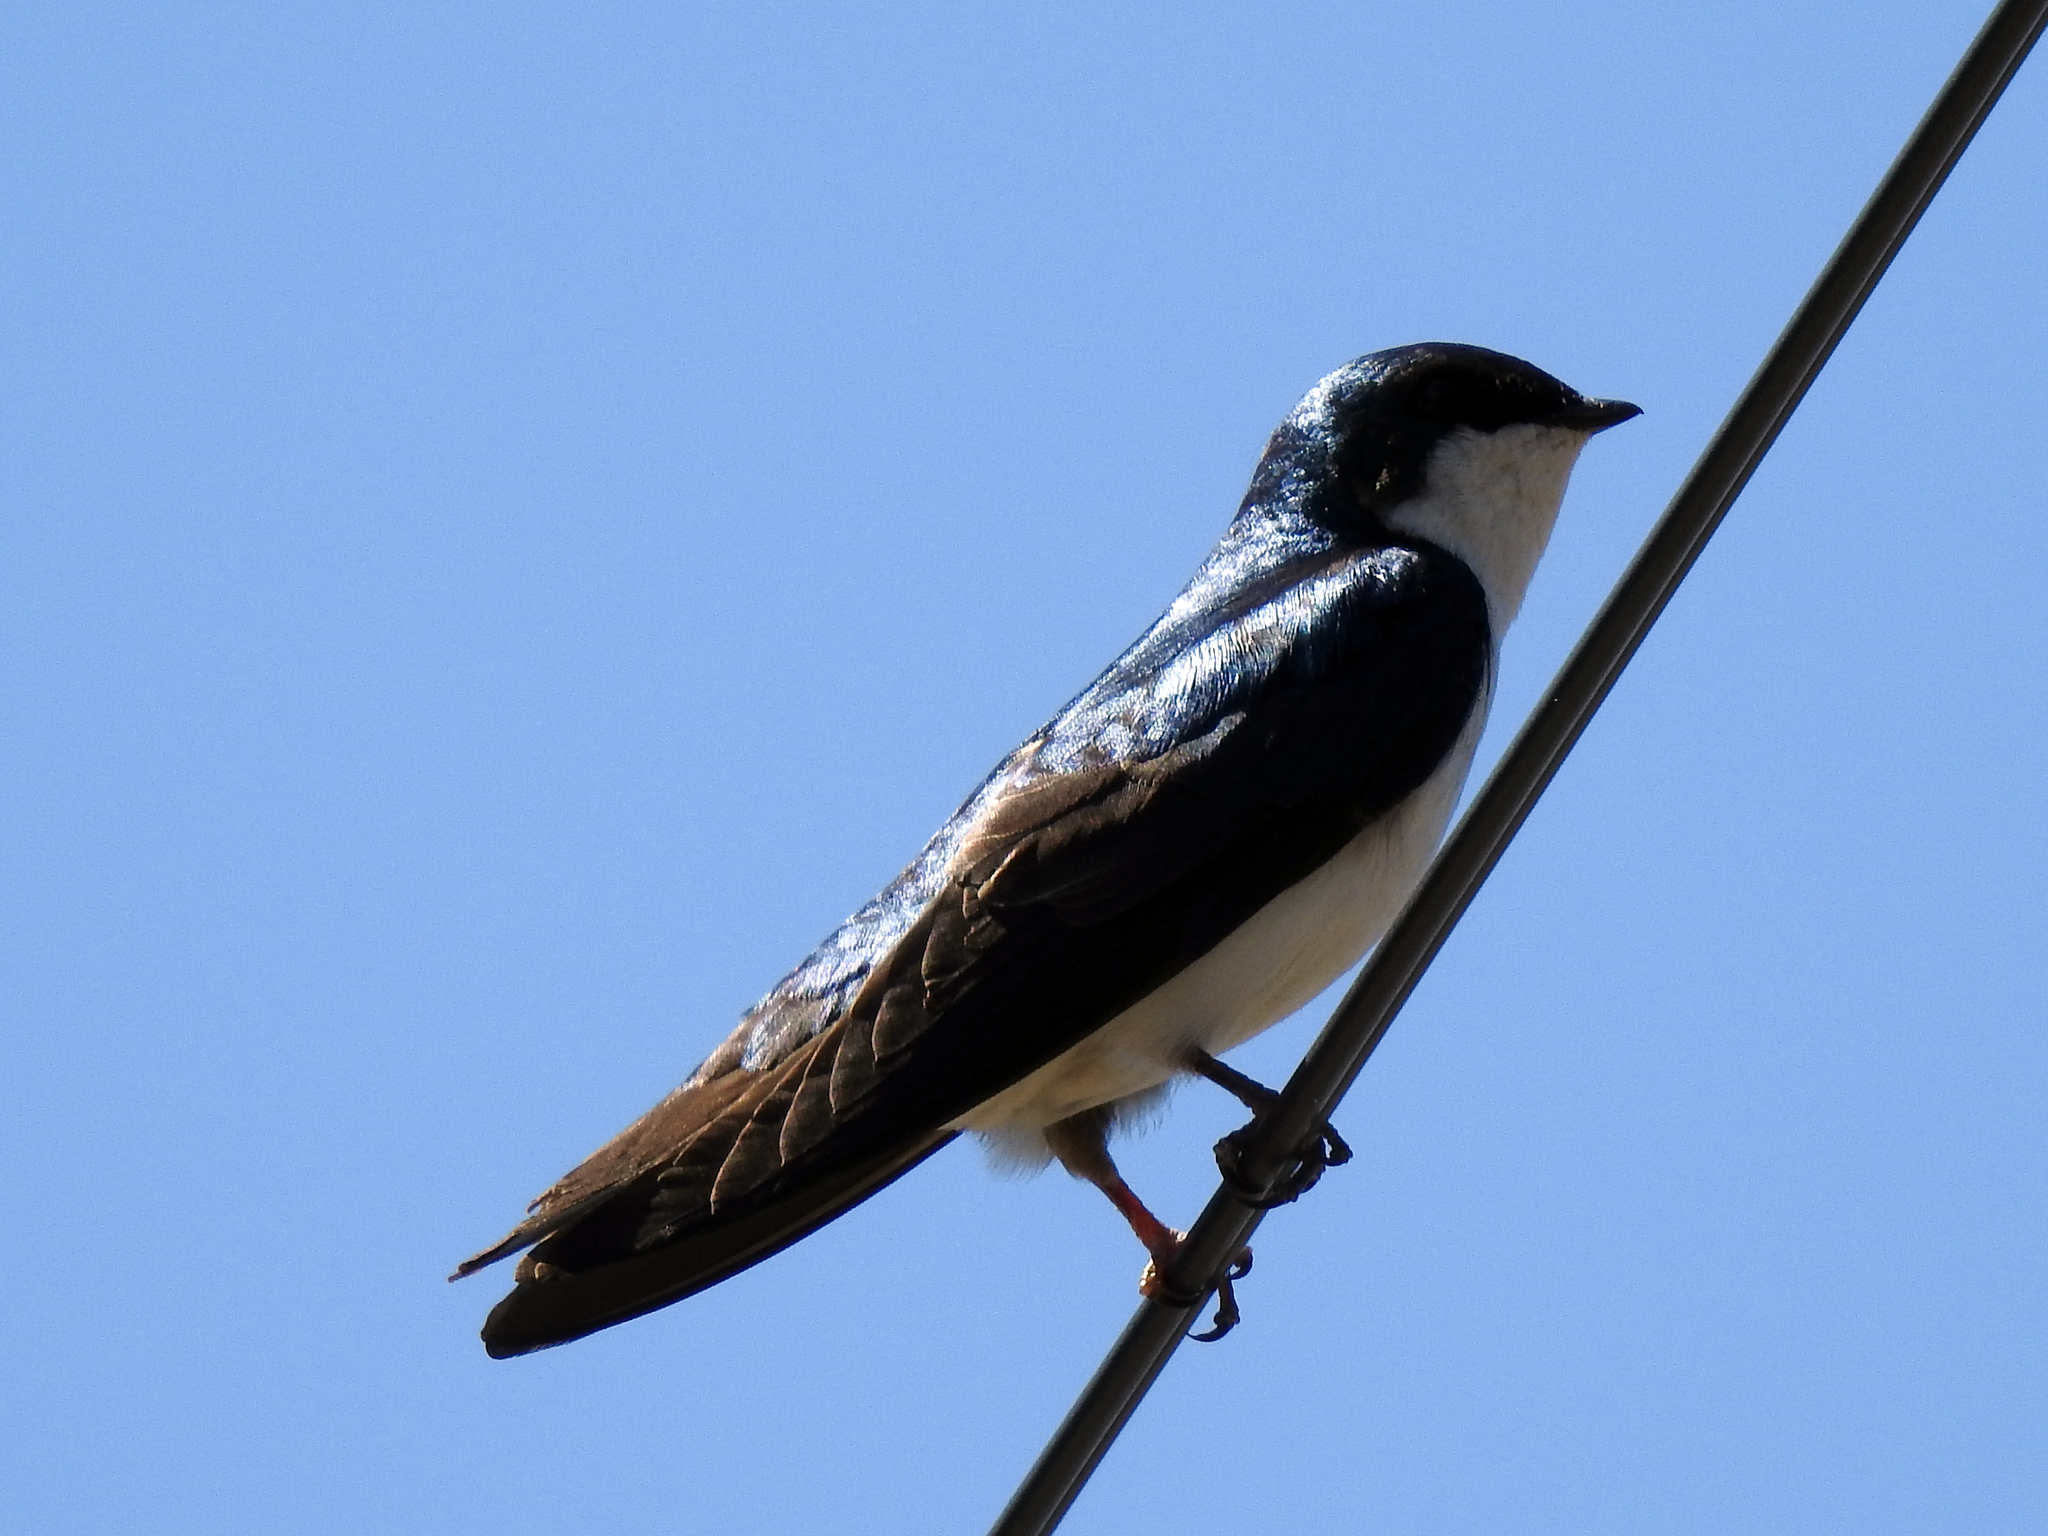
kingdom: Animalia
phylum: Chordata
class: Aves
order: Passeriformes
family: Hirundinidae
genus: Tachycineta
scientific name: Tachycineta bicolor
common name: Tree swallow
